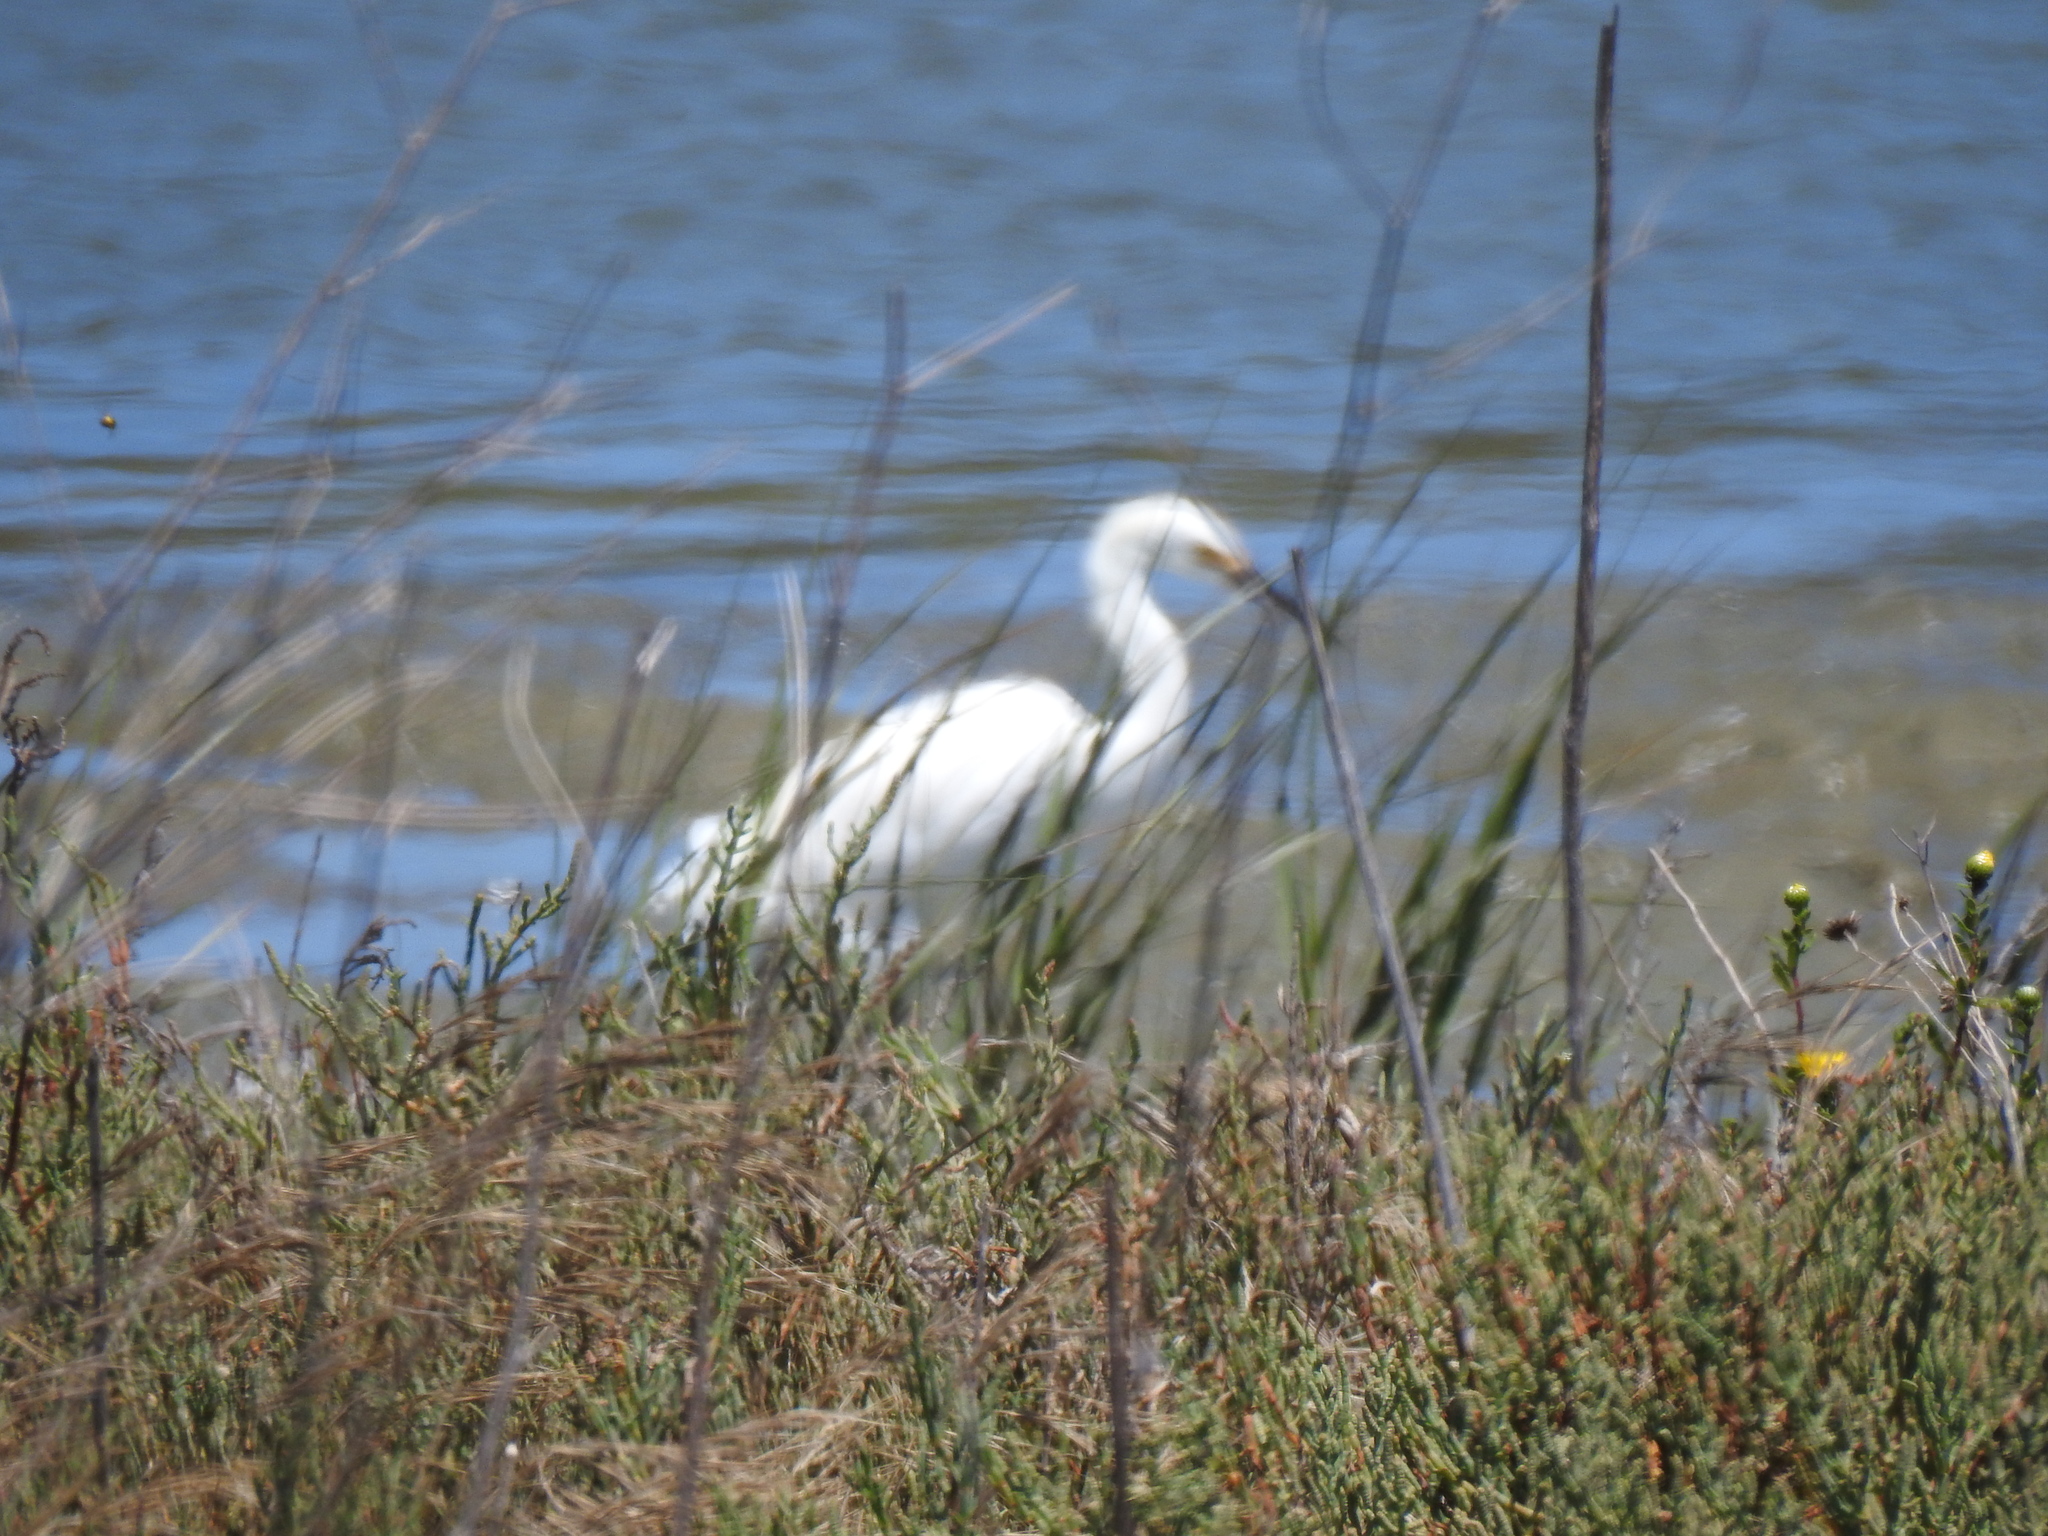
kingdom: Animalia
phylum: Chordata
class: Aves
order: Pelecaniformes
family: Ardeidae
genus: Egretta
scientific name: Egretta thula
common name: Snowy egret
